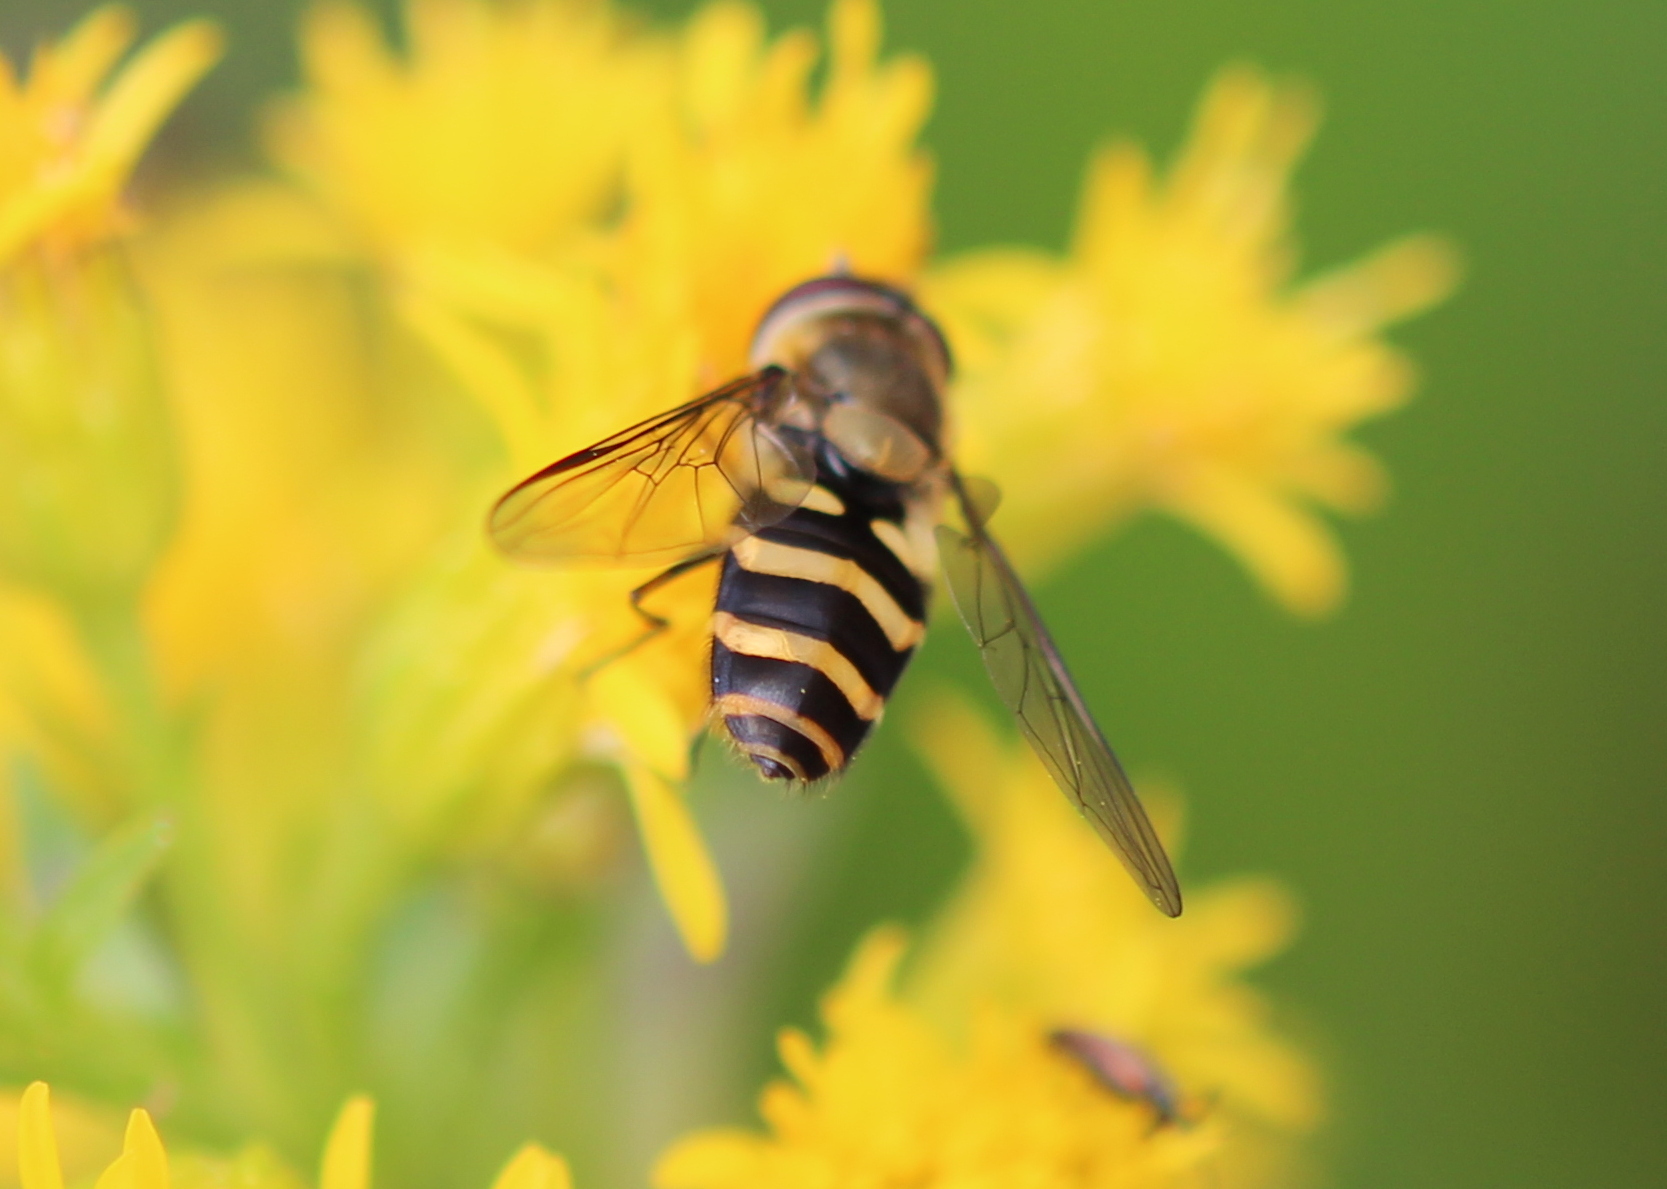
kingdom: Animalia
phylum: Arthropoda
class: Insecta
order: Diptera
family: Syrphidae
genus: Syrphus
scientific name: Syrphus
